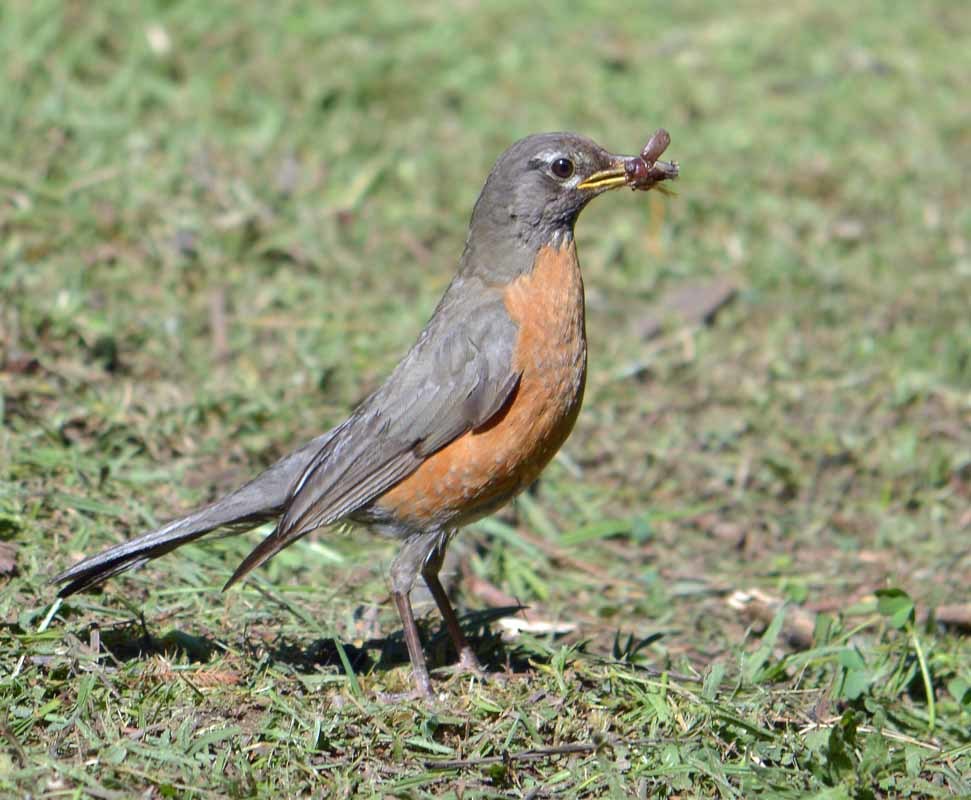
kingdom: Animalia
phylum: Chordata
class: Aves
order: Passeriformes
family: Turdidae
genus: Turdus
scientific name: Turdus migratorius
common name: American robin
